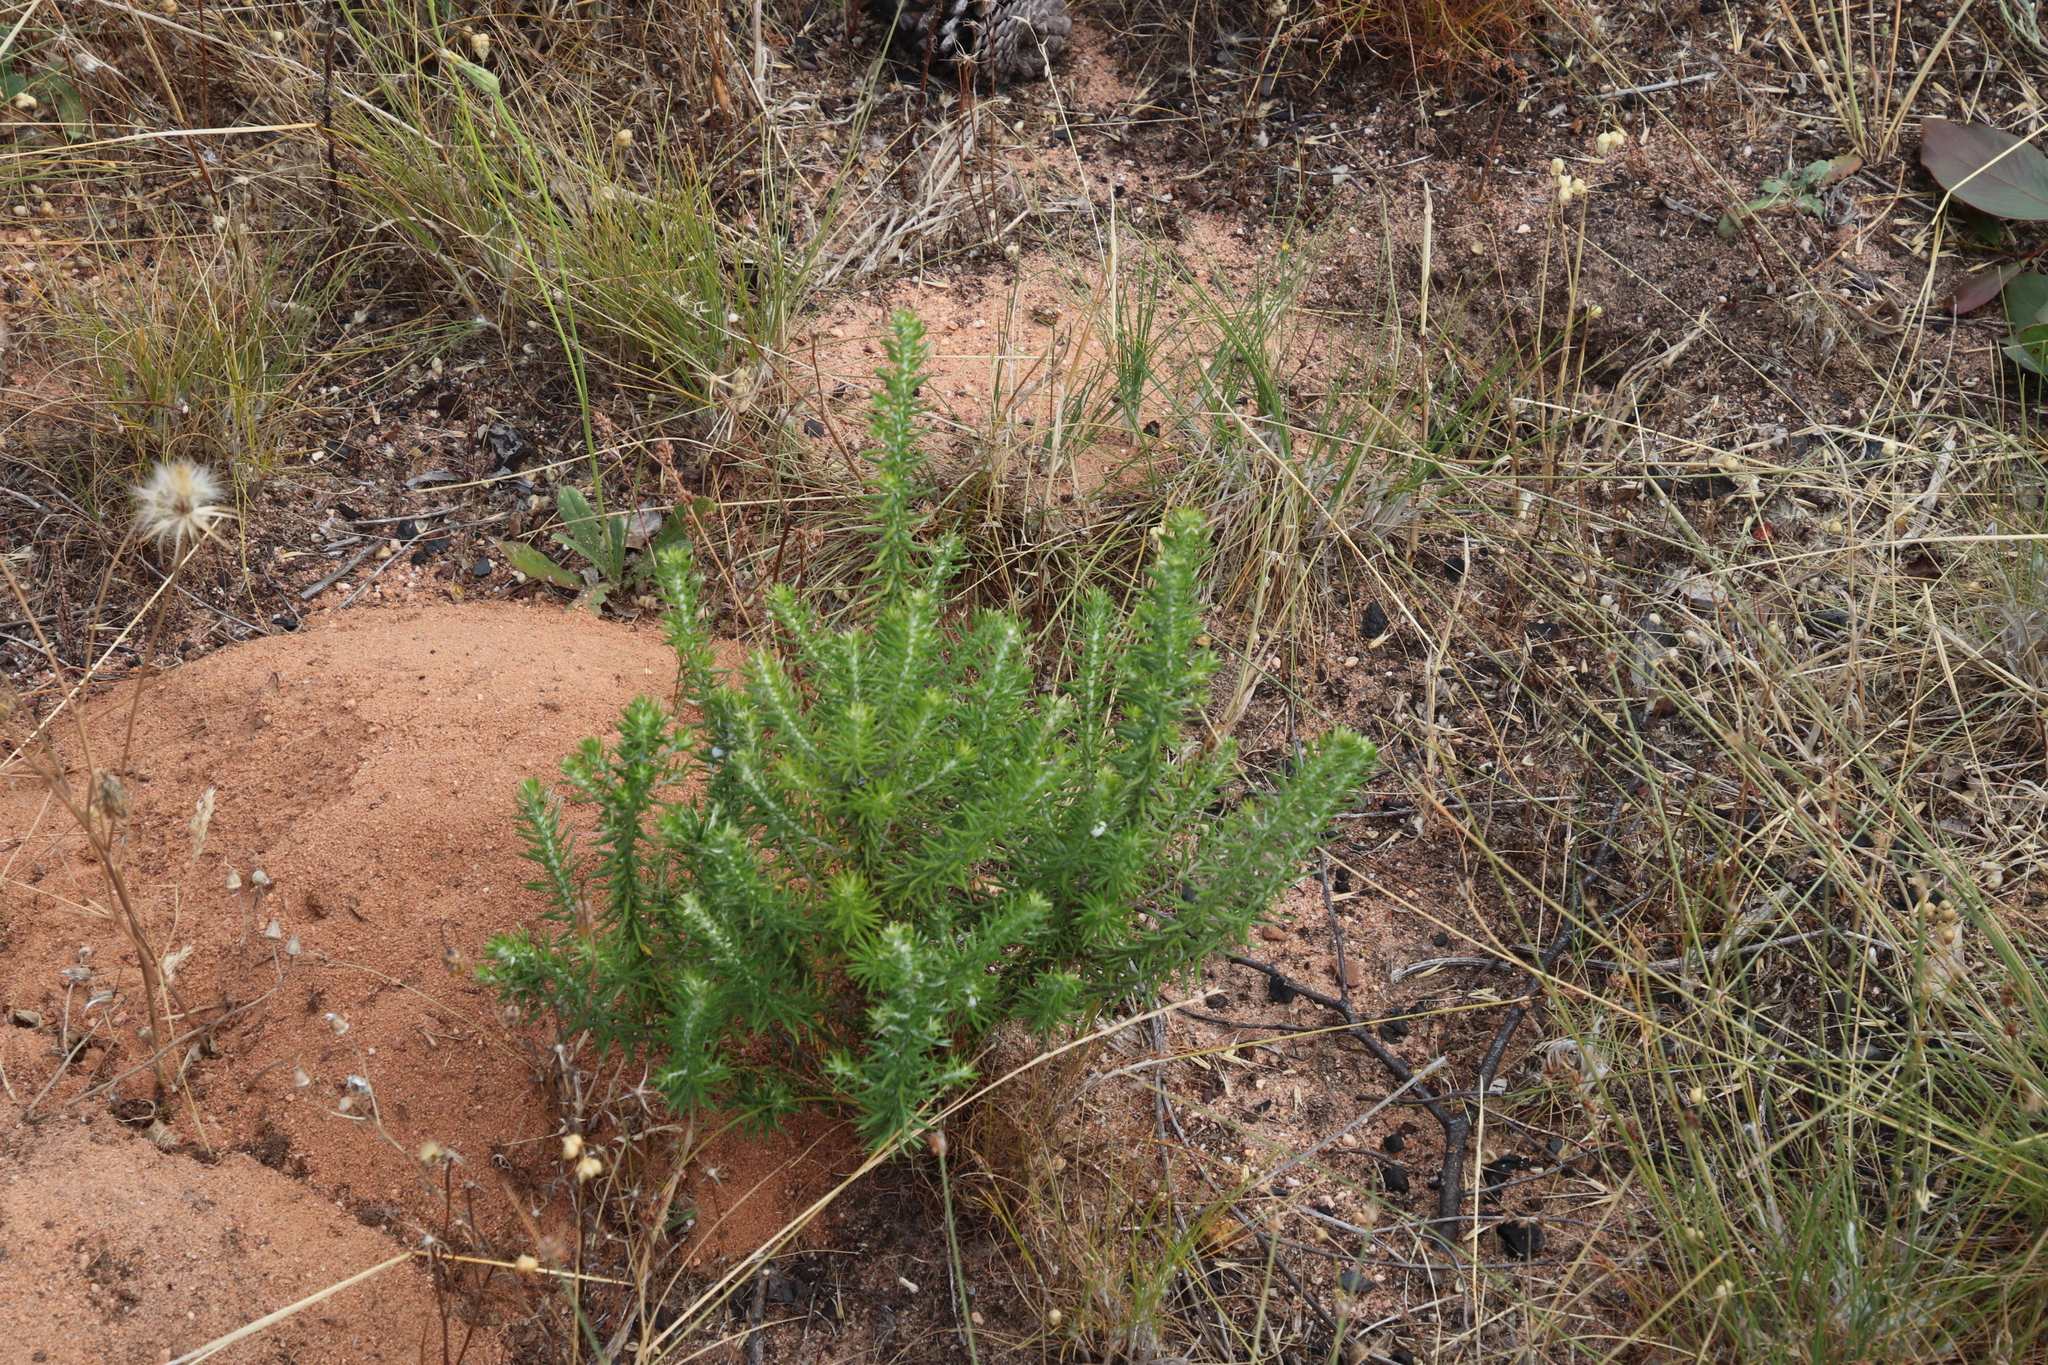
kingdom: Plantae
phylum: Tracheophyta
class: Magnoliopsida
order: Asterales
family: Asteraceae
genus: Metalasia
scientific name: Metalasia densa
